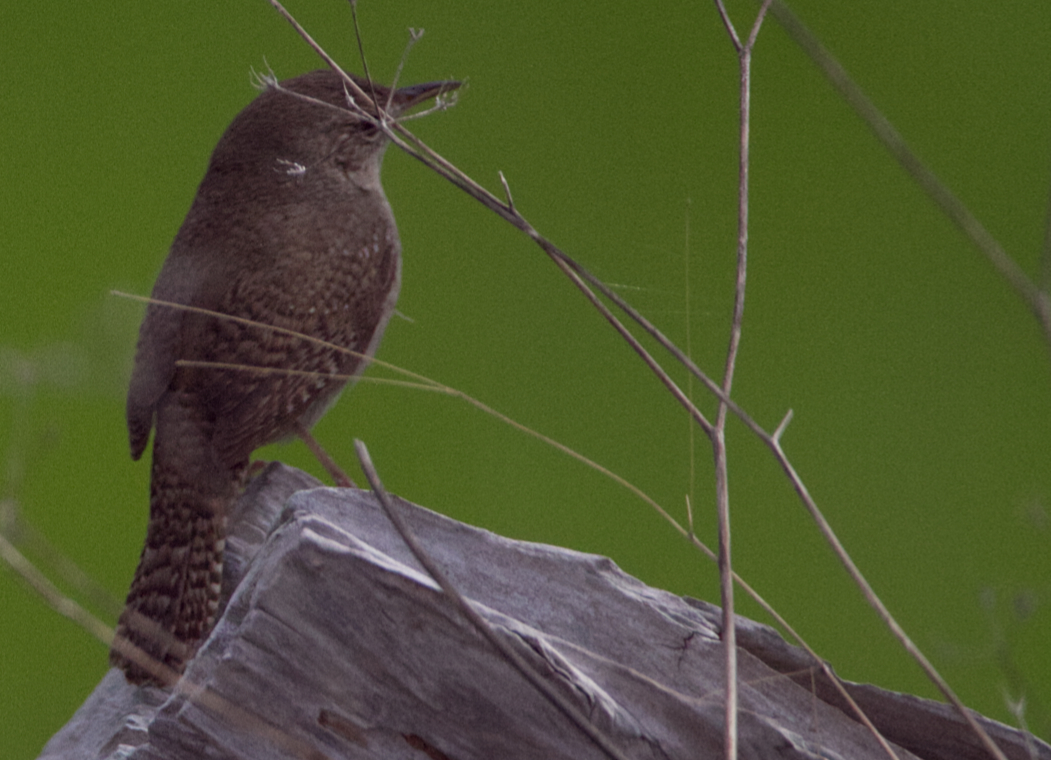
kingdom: Animalia
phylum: Chordata
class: Aves
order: Passeriformes
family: Troglodytidae
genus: Troglodytes
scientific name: Troglodytes aedon
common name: House wren
